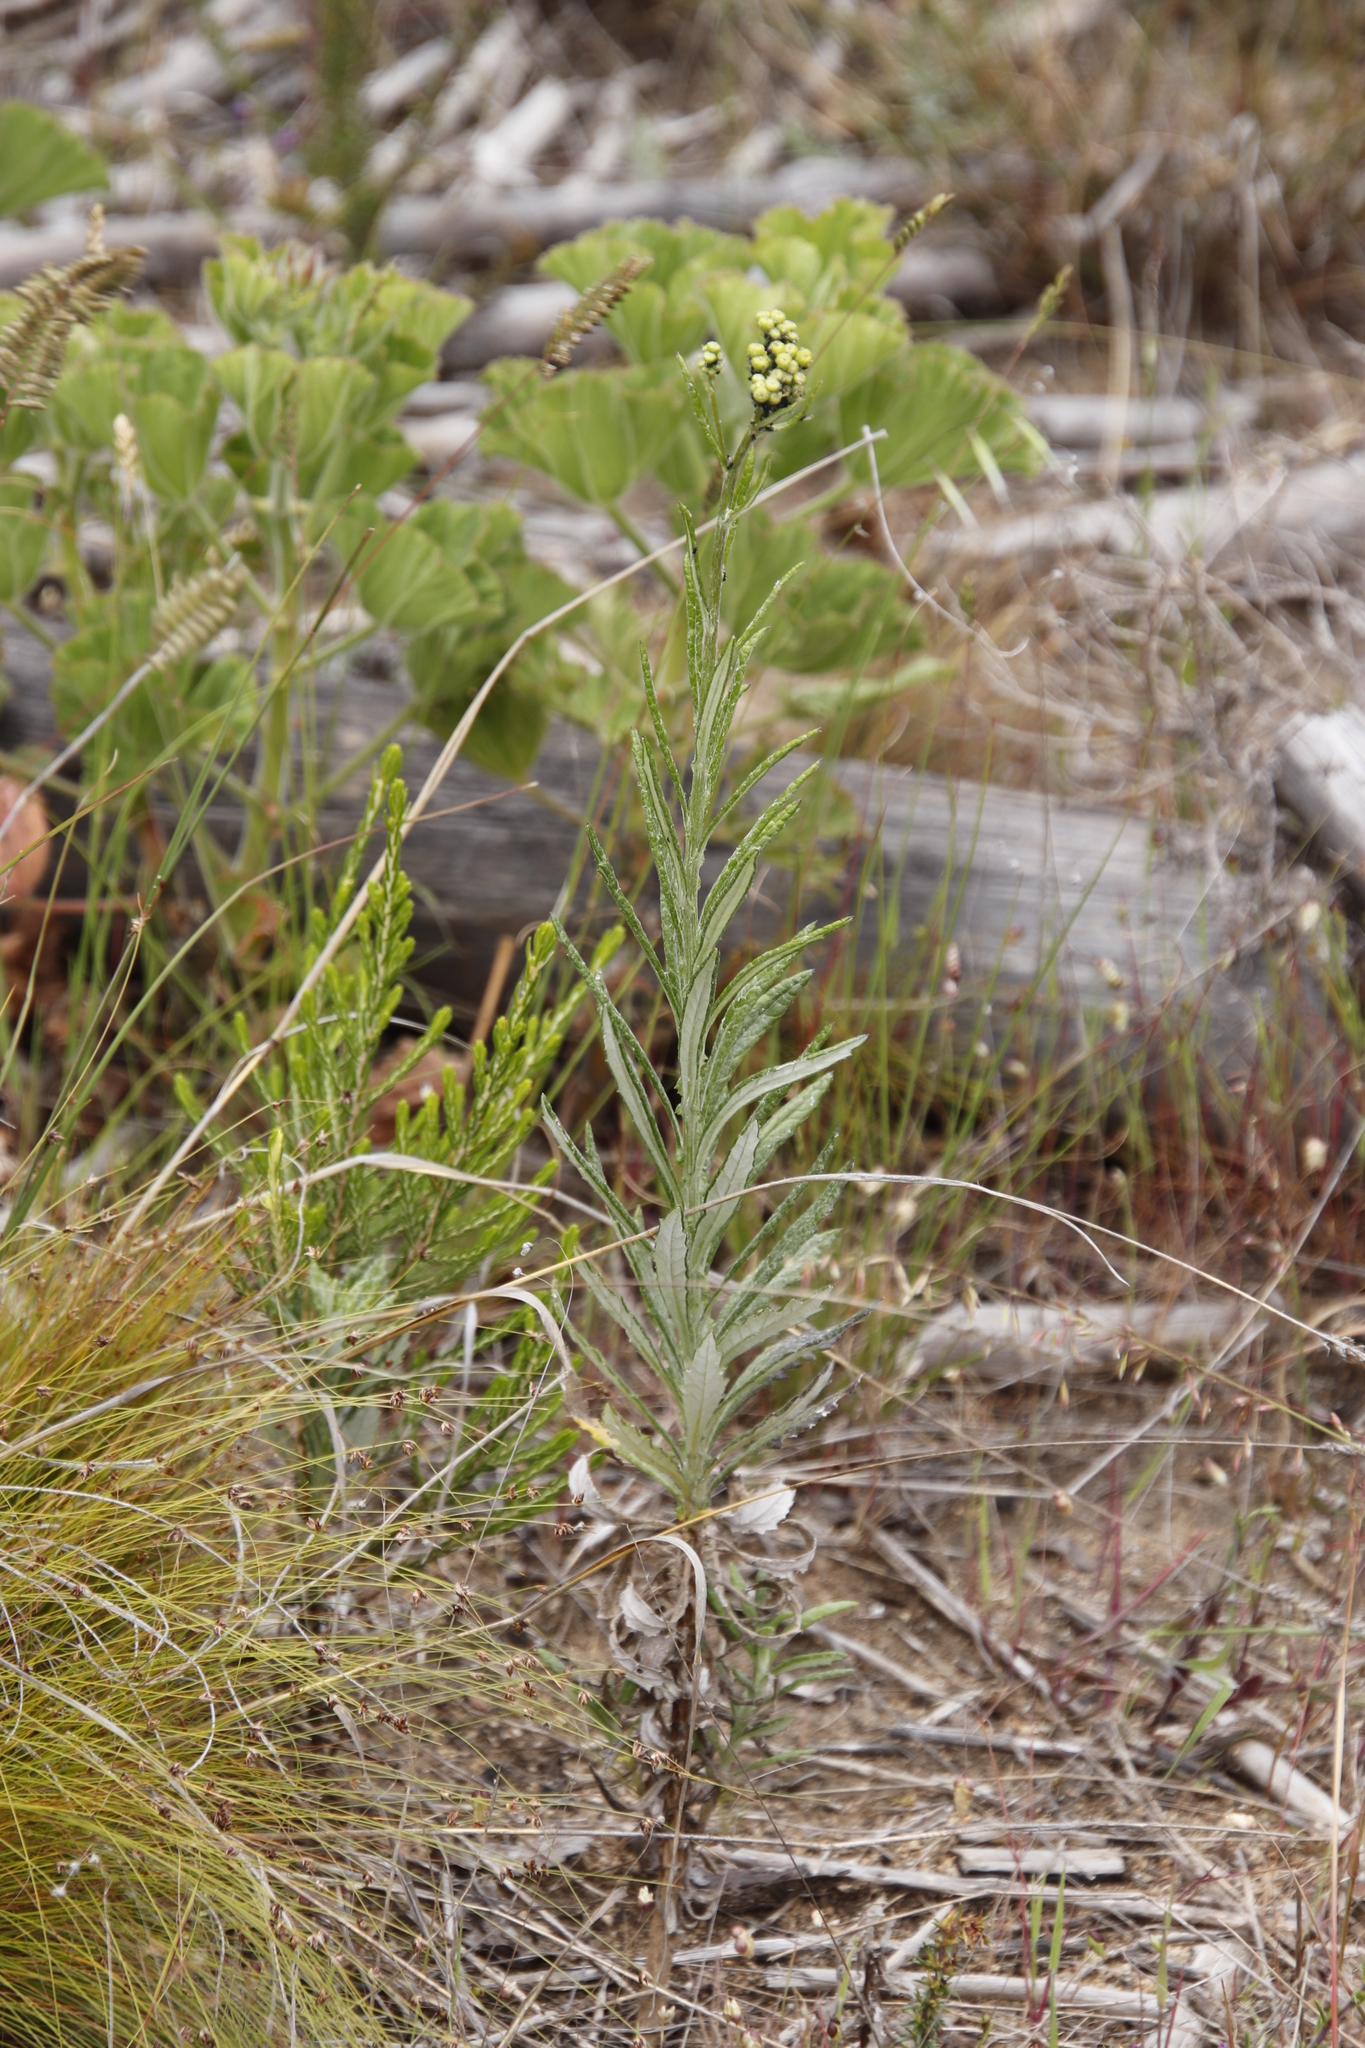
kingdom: Plantae
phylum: Tracheophyta
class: Magnoliopsida
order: Asterales
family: Asteraceae
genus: Senecio
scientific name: Senecio pterophorus
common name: Shoddy ragwort
